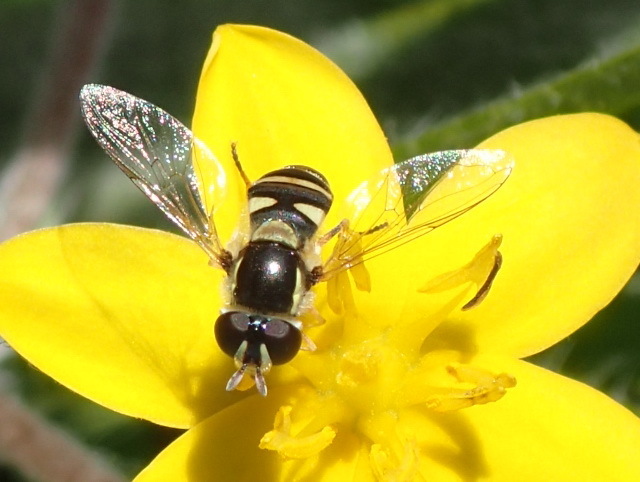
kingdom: Animalia
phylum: Arthropoda
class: Insecta
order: Diptera
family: Syrphidae
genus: Ischiodon
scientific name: Ischiodon aegyptius
